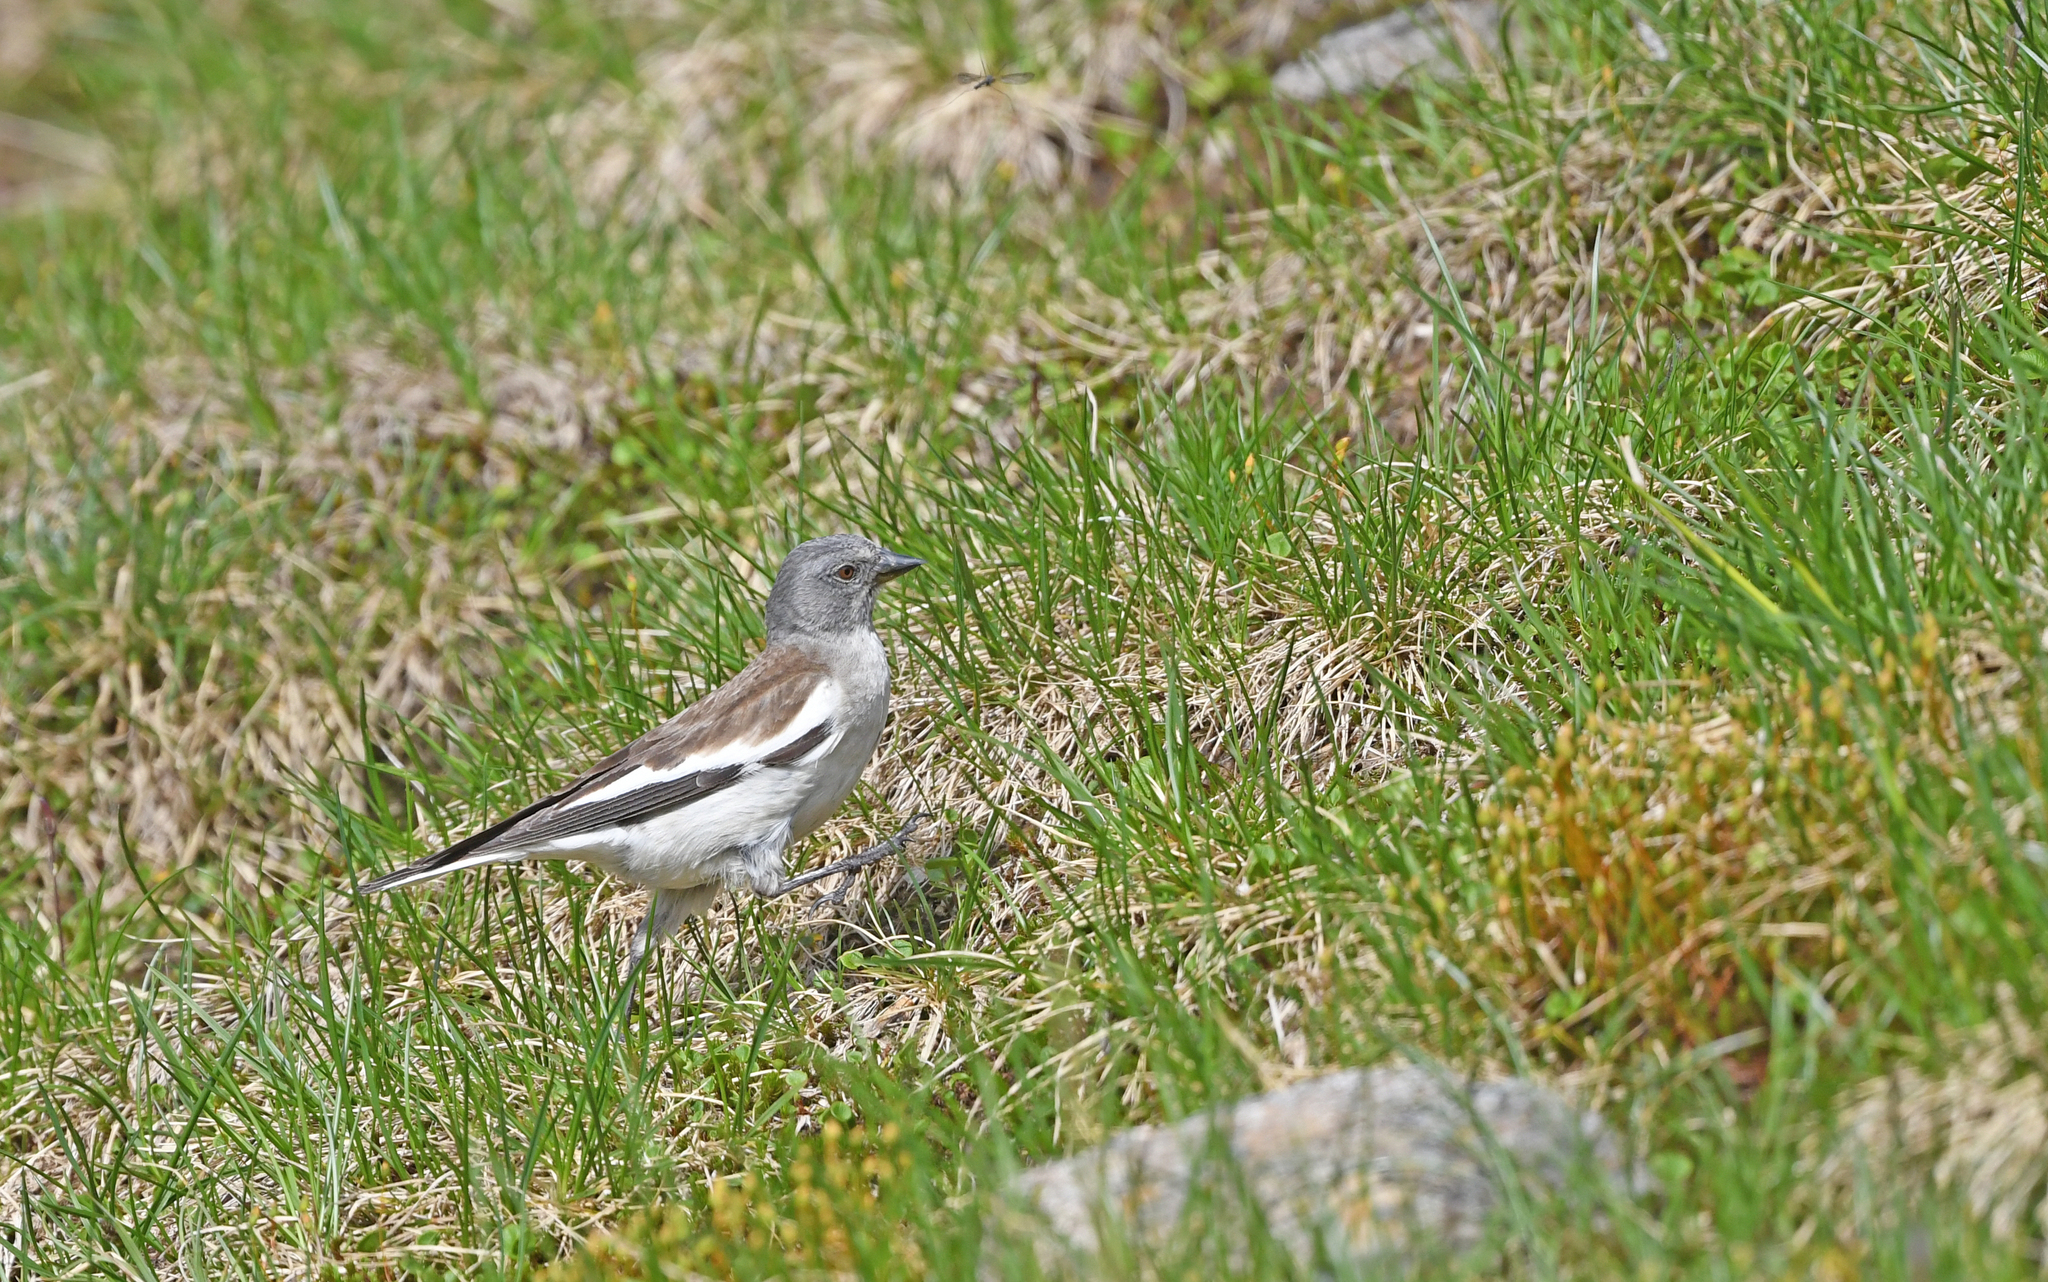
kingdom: Animalia
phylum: Chordata
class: Aves
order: Passeriformes
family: Passeridae
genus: Montifringilla
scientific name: Montifringilla nivalis
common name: White-winged snowfinch
